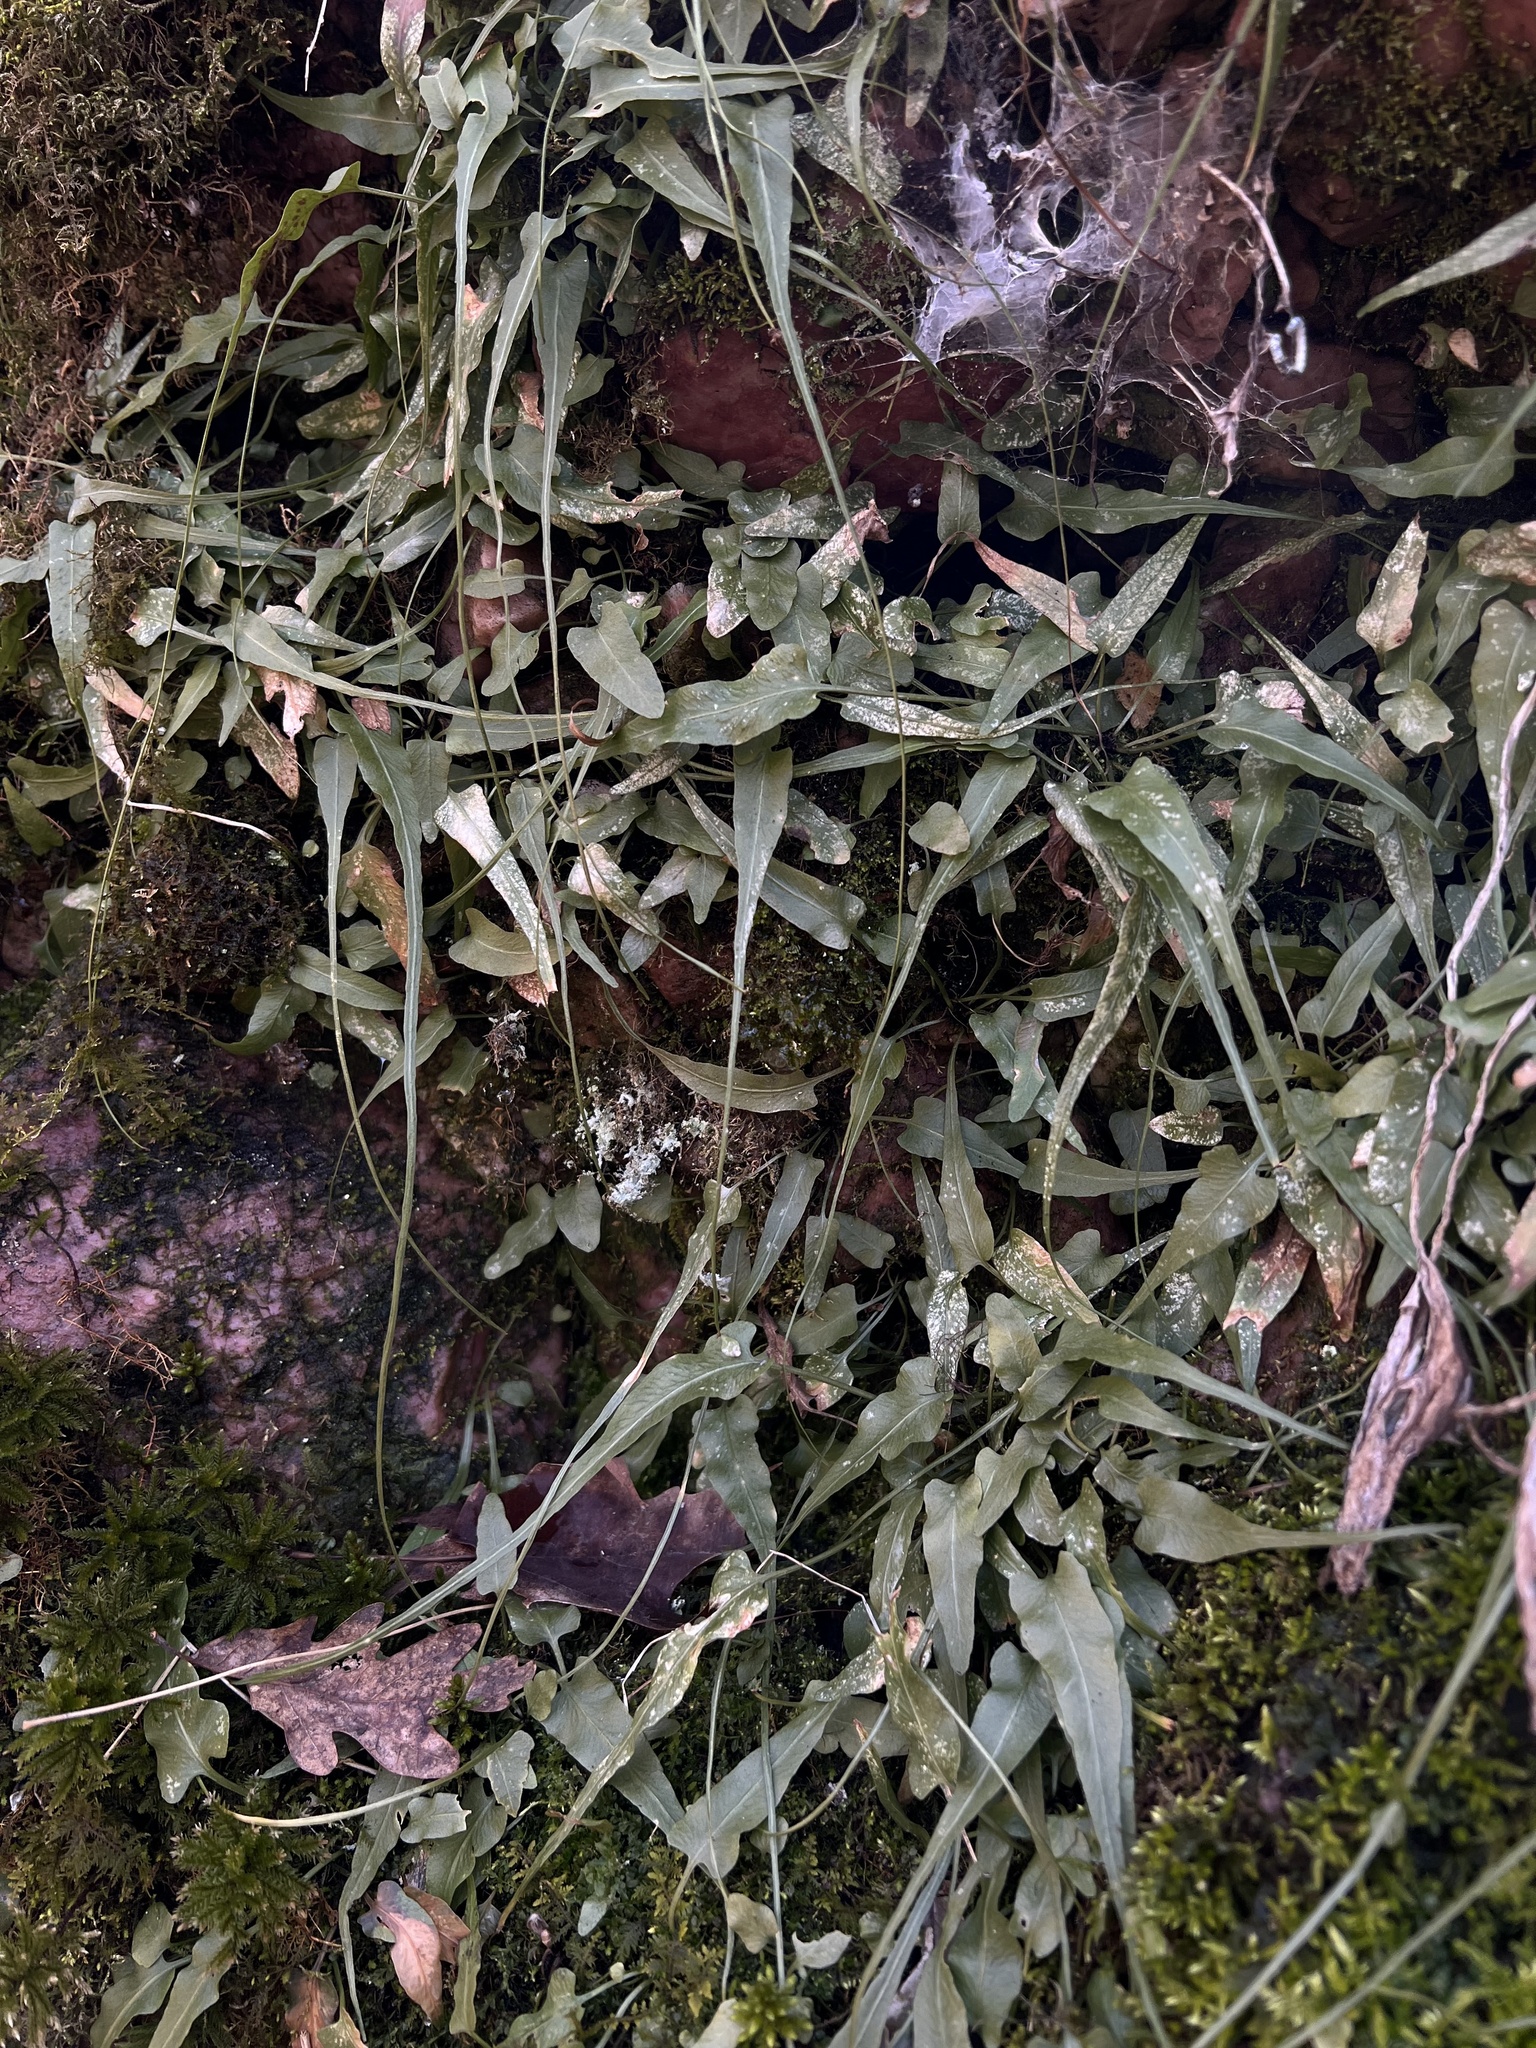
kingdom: Plantae
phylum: Tracheophyta
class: Polypodiopsida
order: Polypodiales
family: Aspleniaceae
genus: Asplenium
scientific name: Asplenium rhizophyllum
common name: Walking fern
